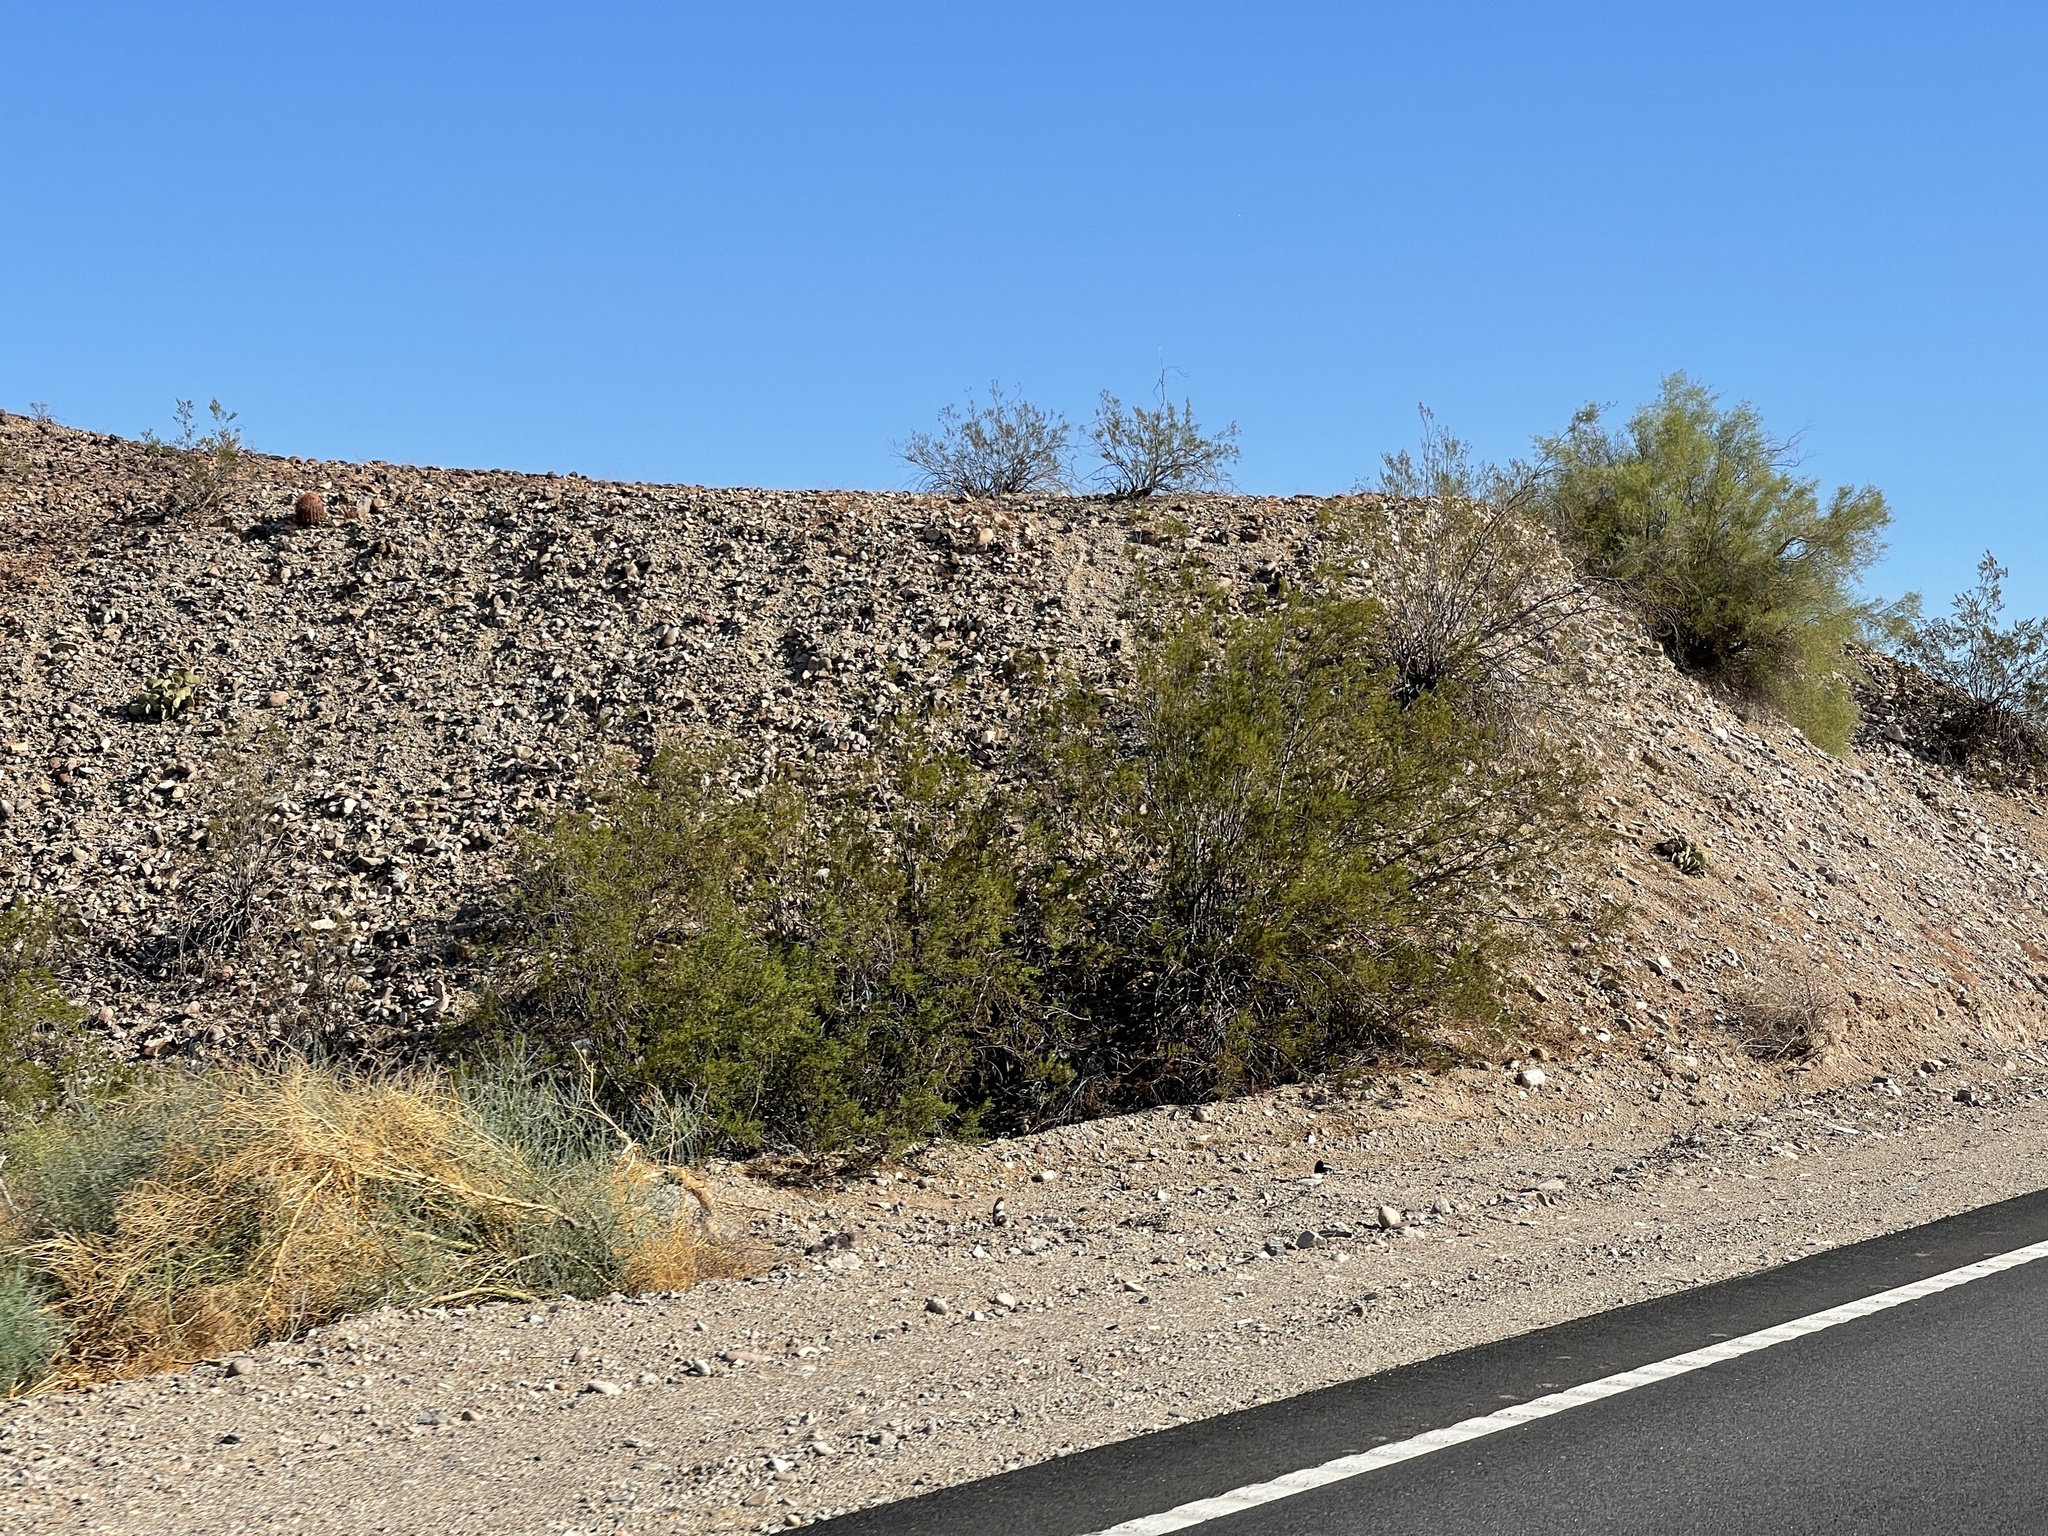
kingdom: Plantae
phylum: Tracheophyta
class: Magnoliopsida
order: Zygophyllales
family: Zygophyllaceae
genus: Larrea
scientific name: Larrea tridentata
